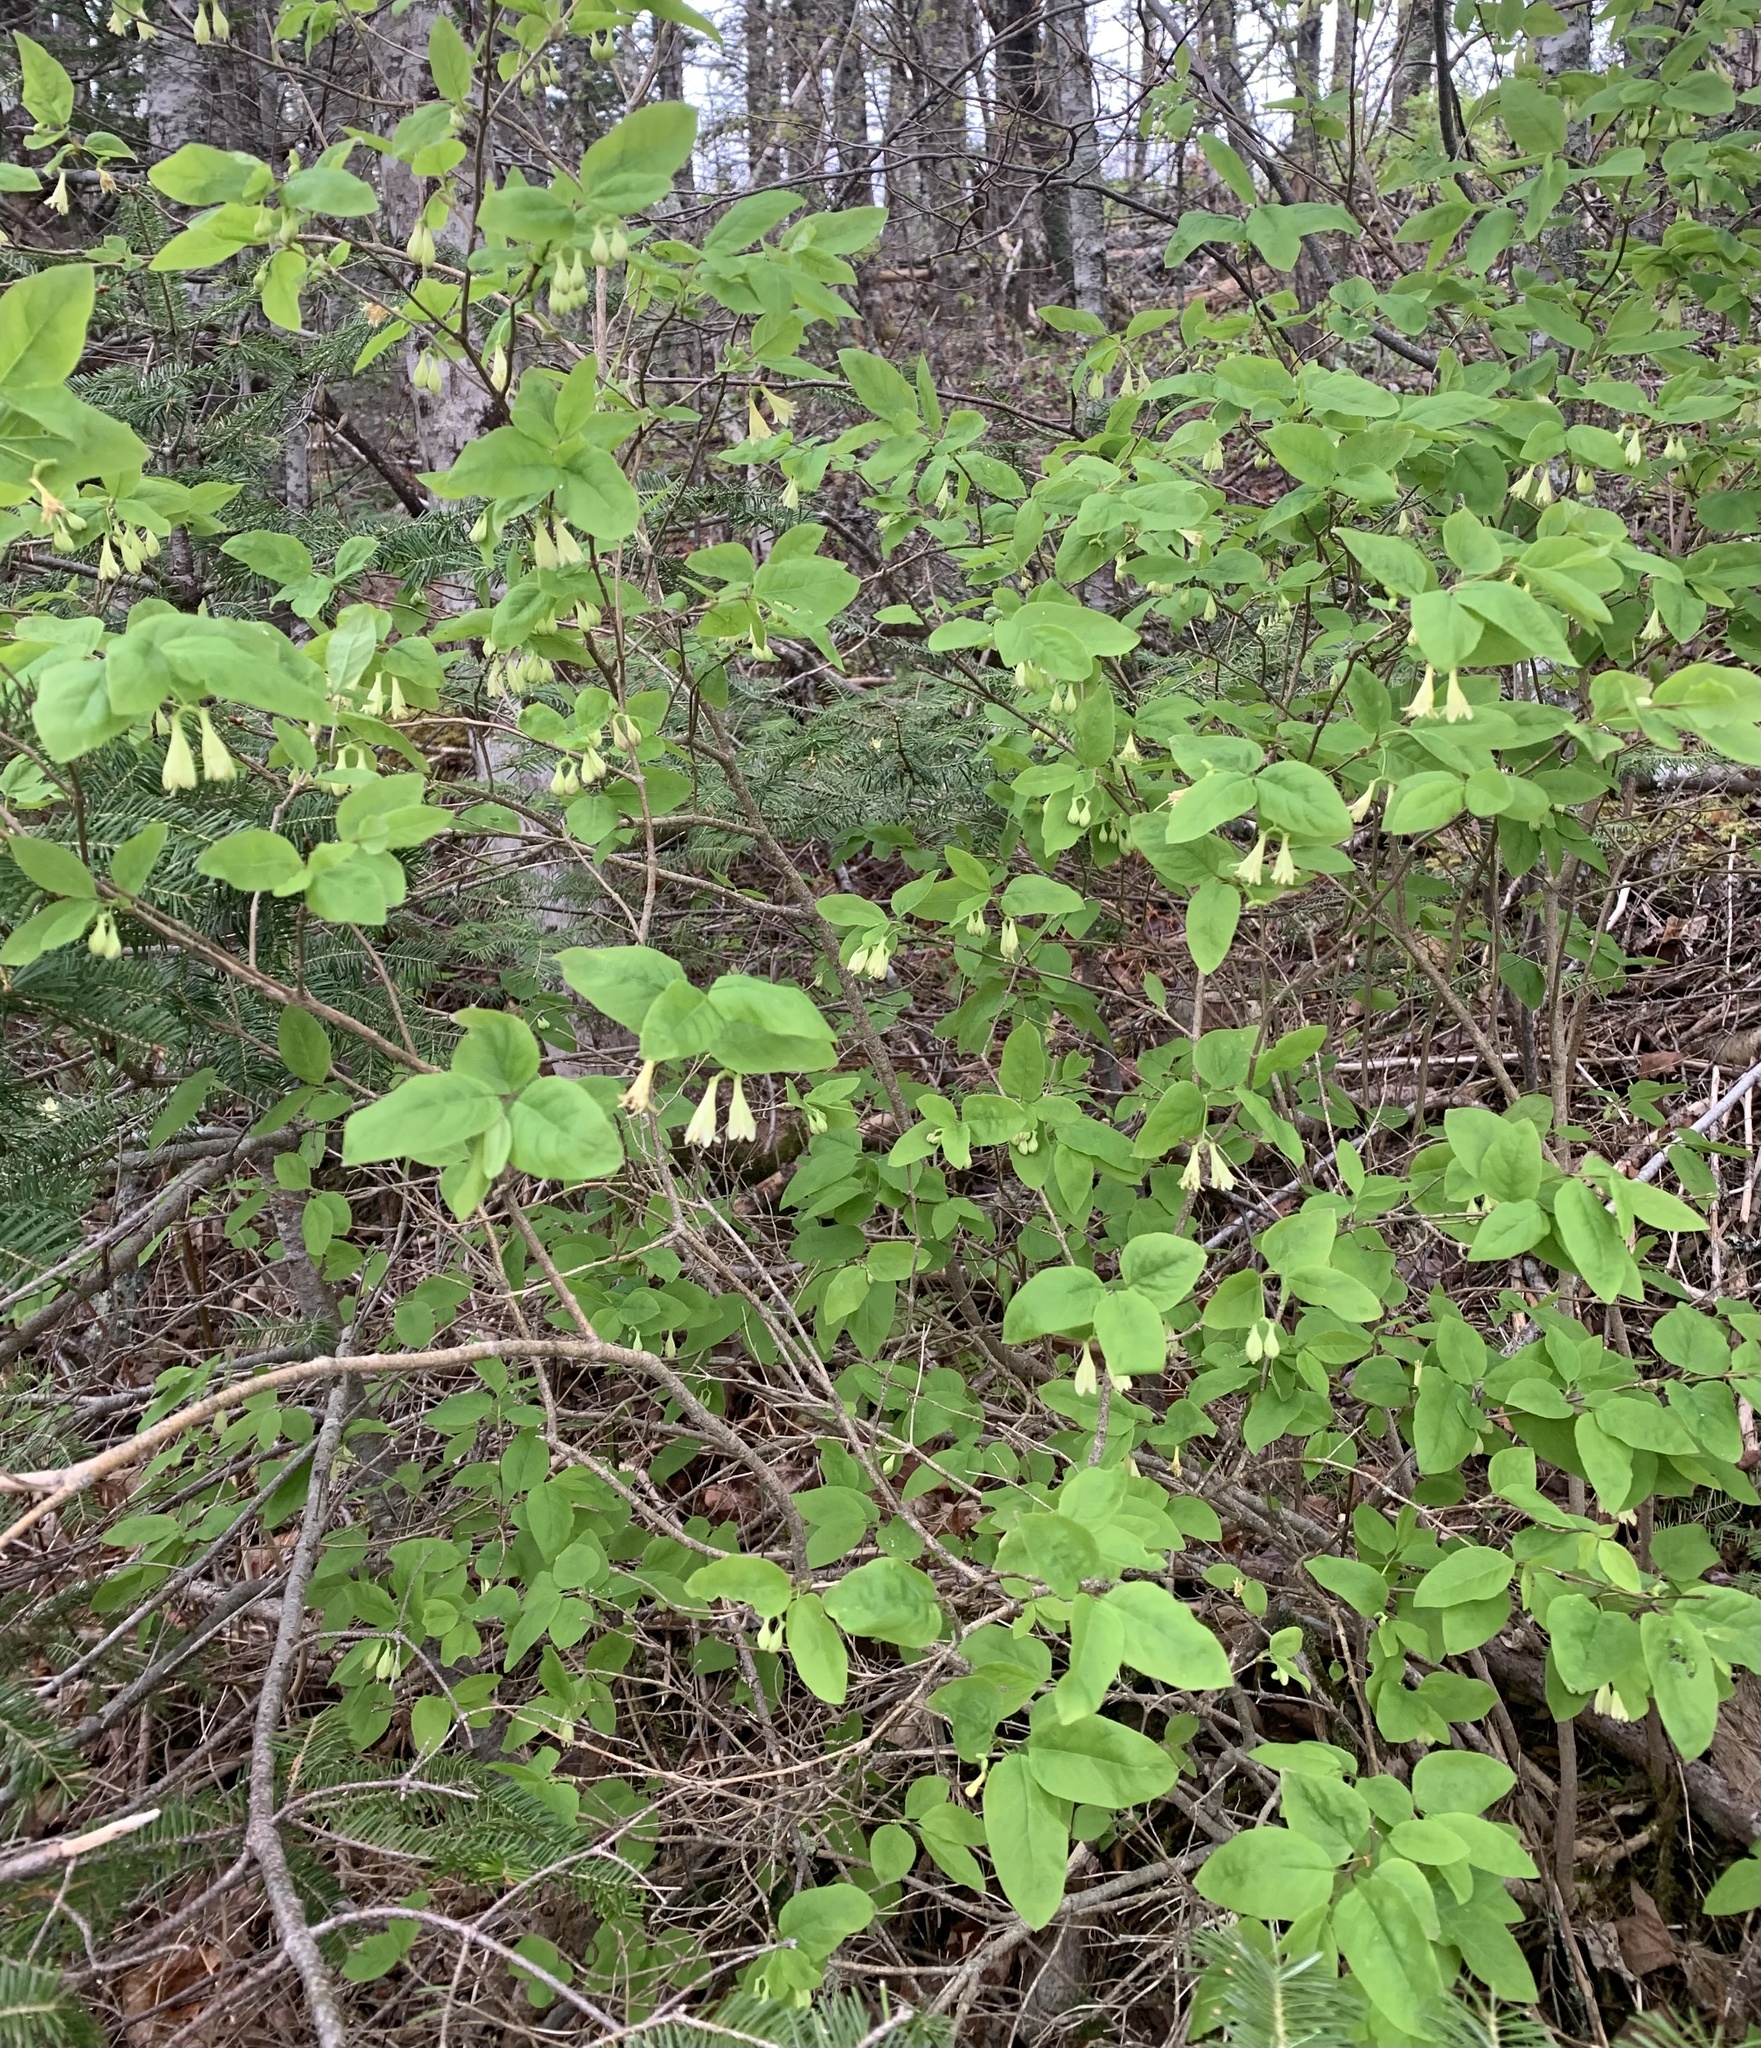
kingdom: Plantae
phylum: Tracheophyta
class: Magnoliopsida
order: Dipsacales
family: Caprifoliaceae
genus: Lonicera
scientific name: Lonicera canadensis
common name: American fly-honeysuckle
